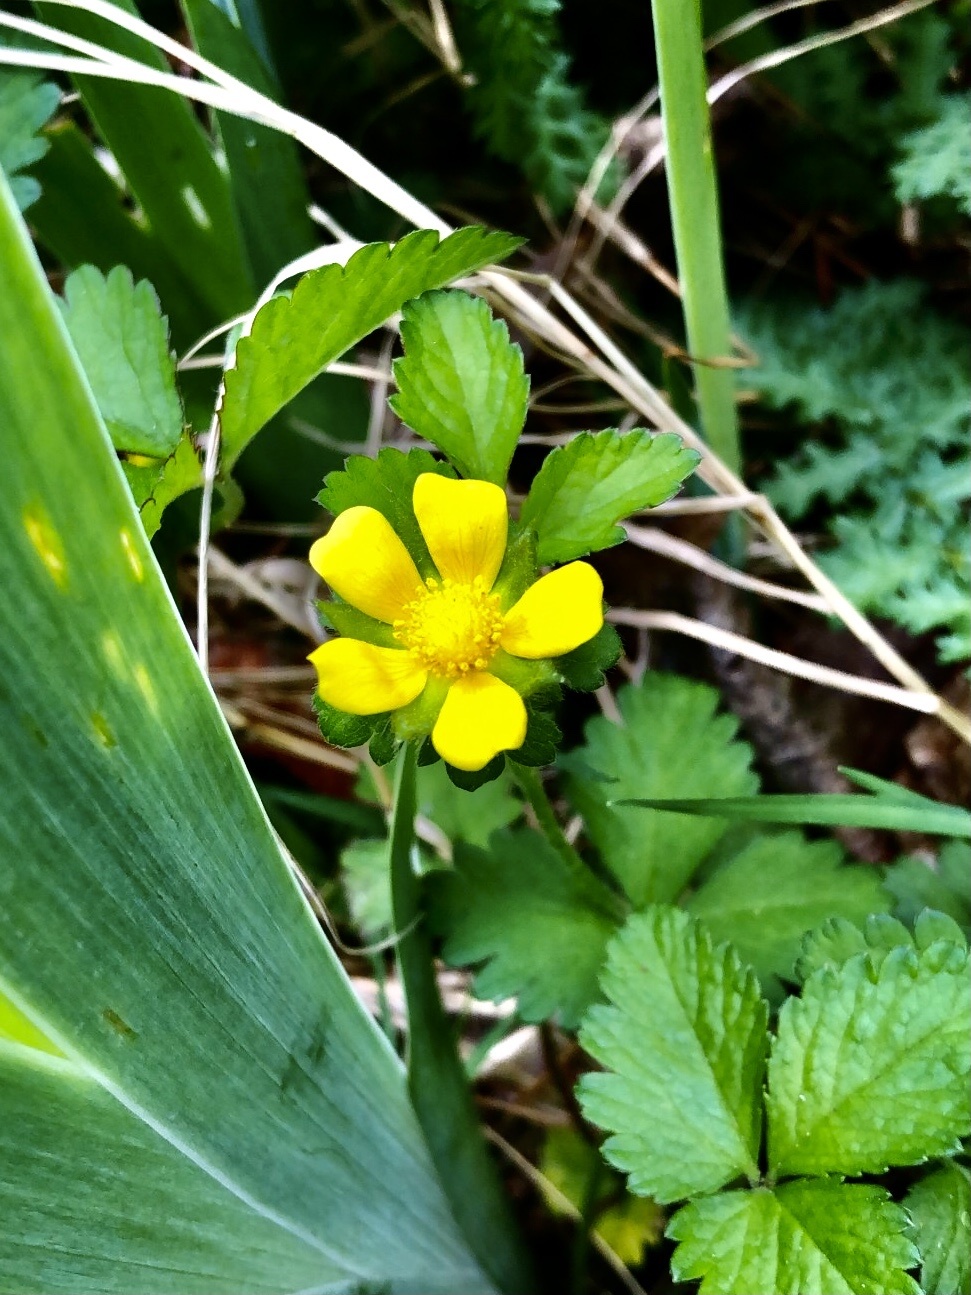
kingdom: Plantae
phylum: Tracheophyta
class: Magnoliopsida
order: Rosales
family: Rosaceae
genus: Potentilla
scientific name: Potentilla indica
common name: Yellow-flowered strawberry
